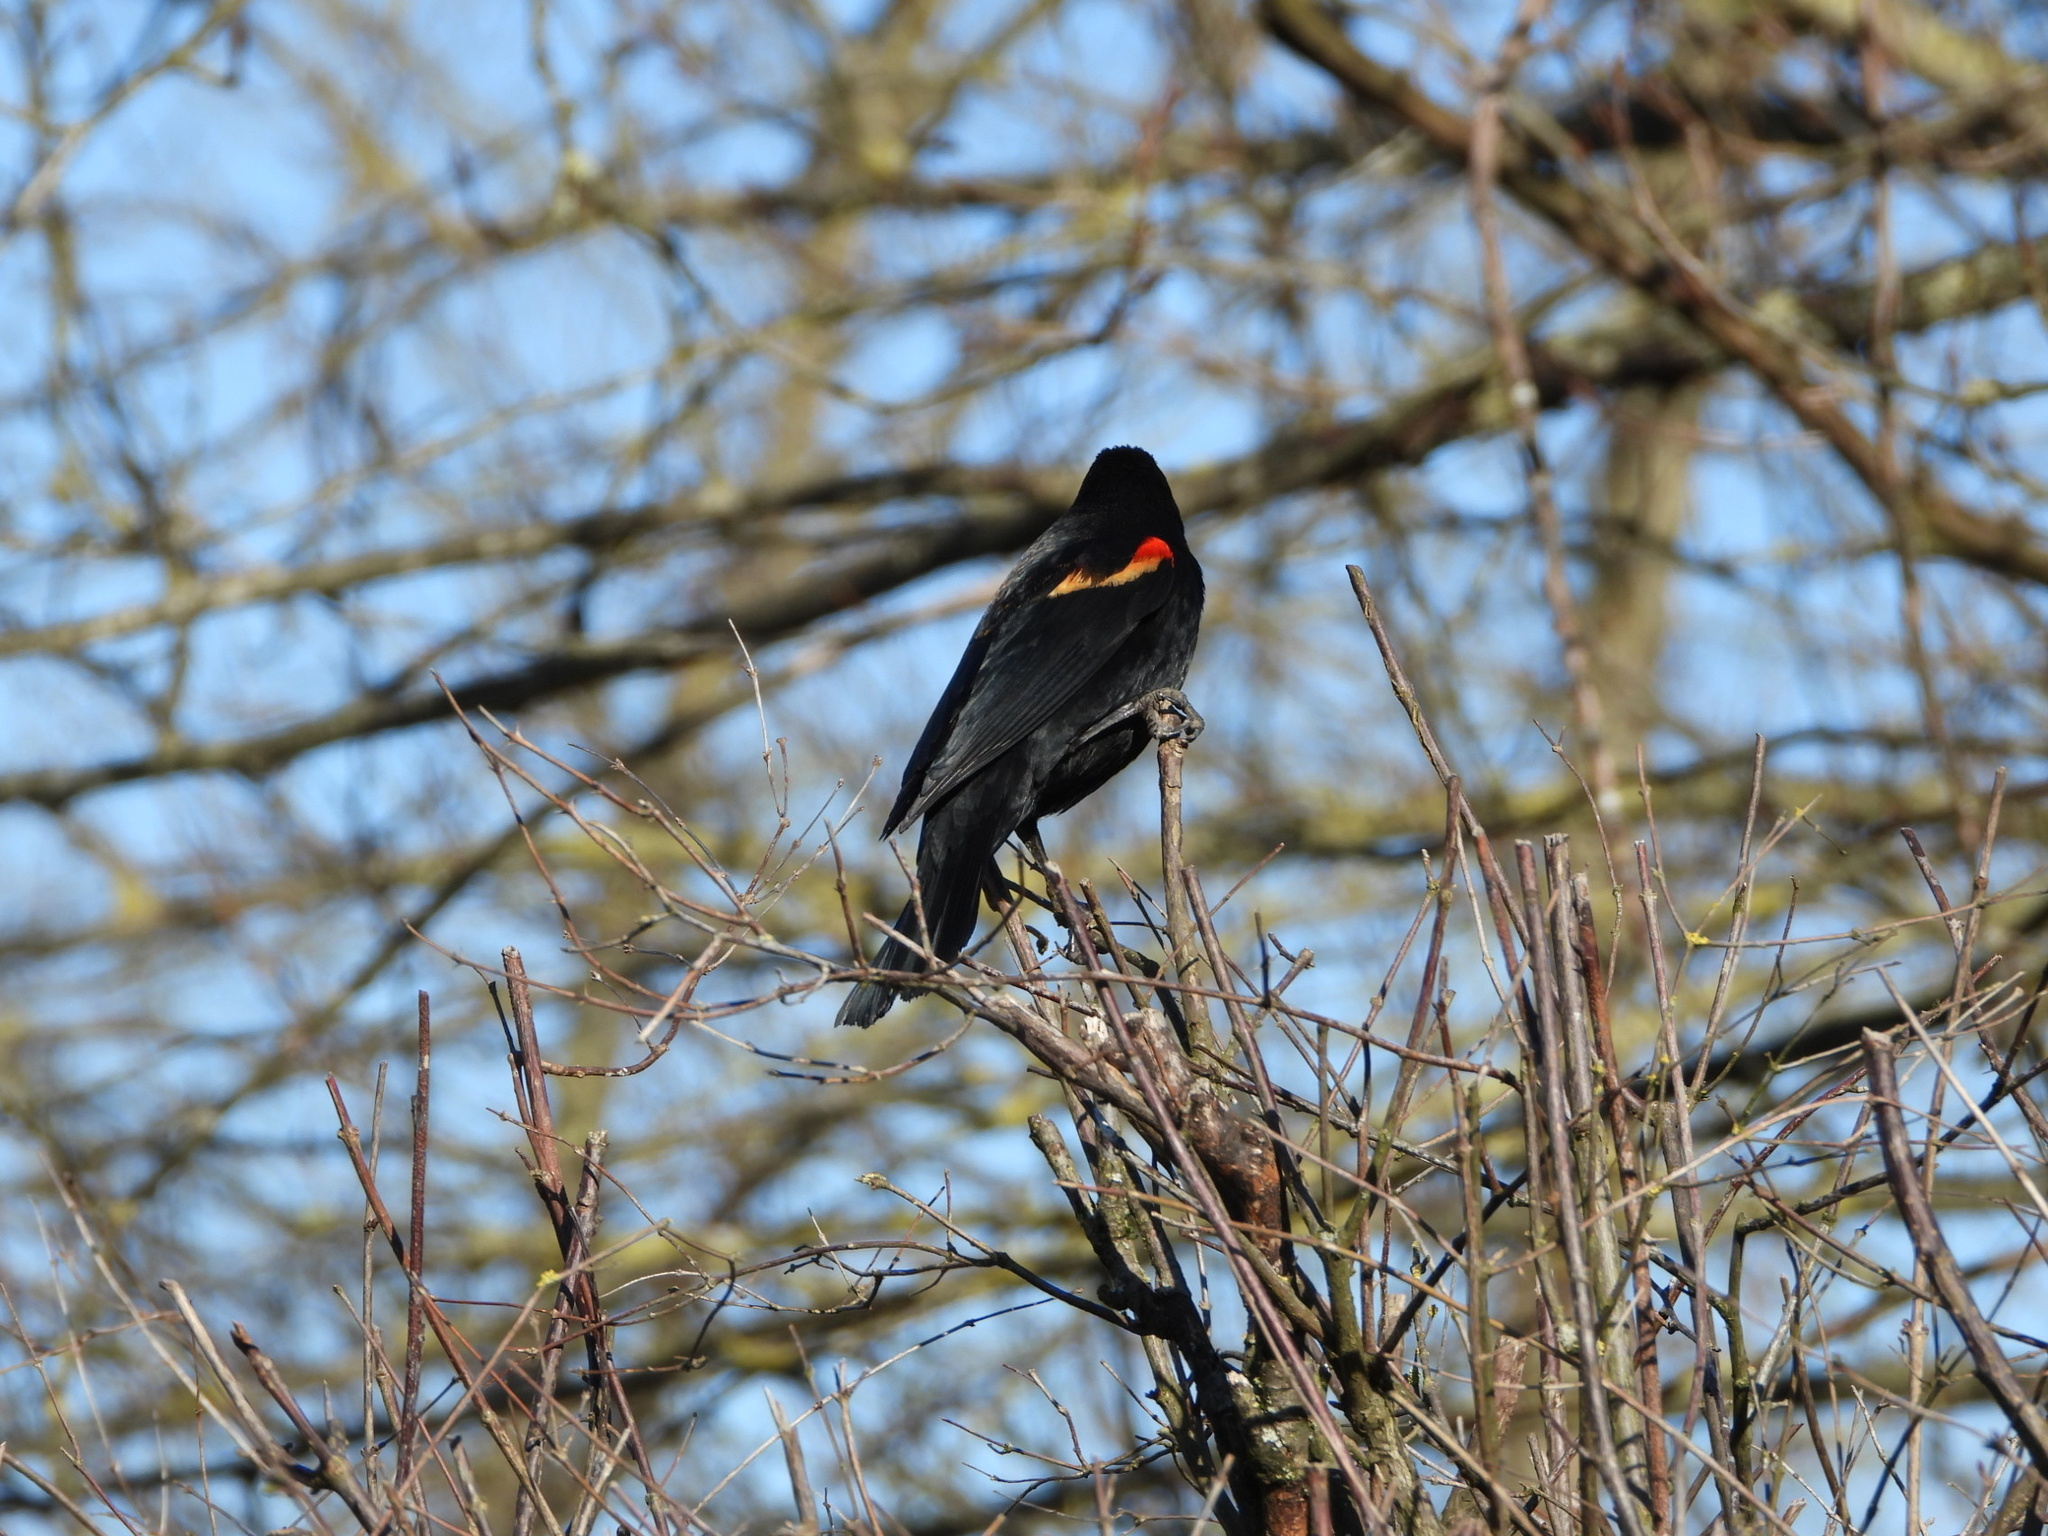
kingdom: Animalia
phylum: Chordata
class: Aves
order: Passeriformes
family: Icteridae
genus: Agelaius
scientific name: Agelaius phoeniceus
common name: Red-winged blackbird
